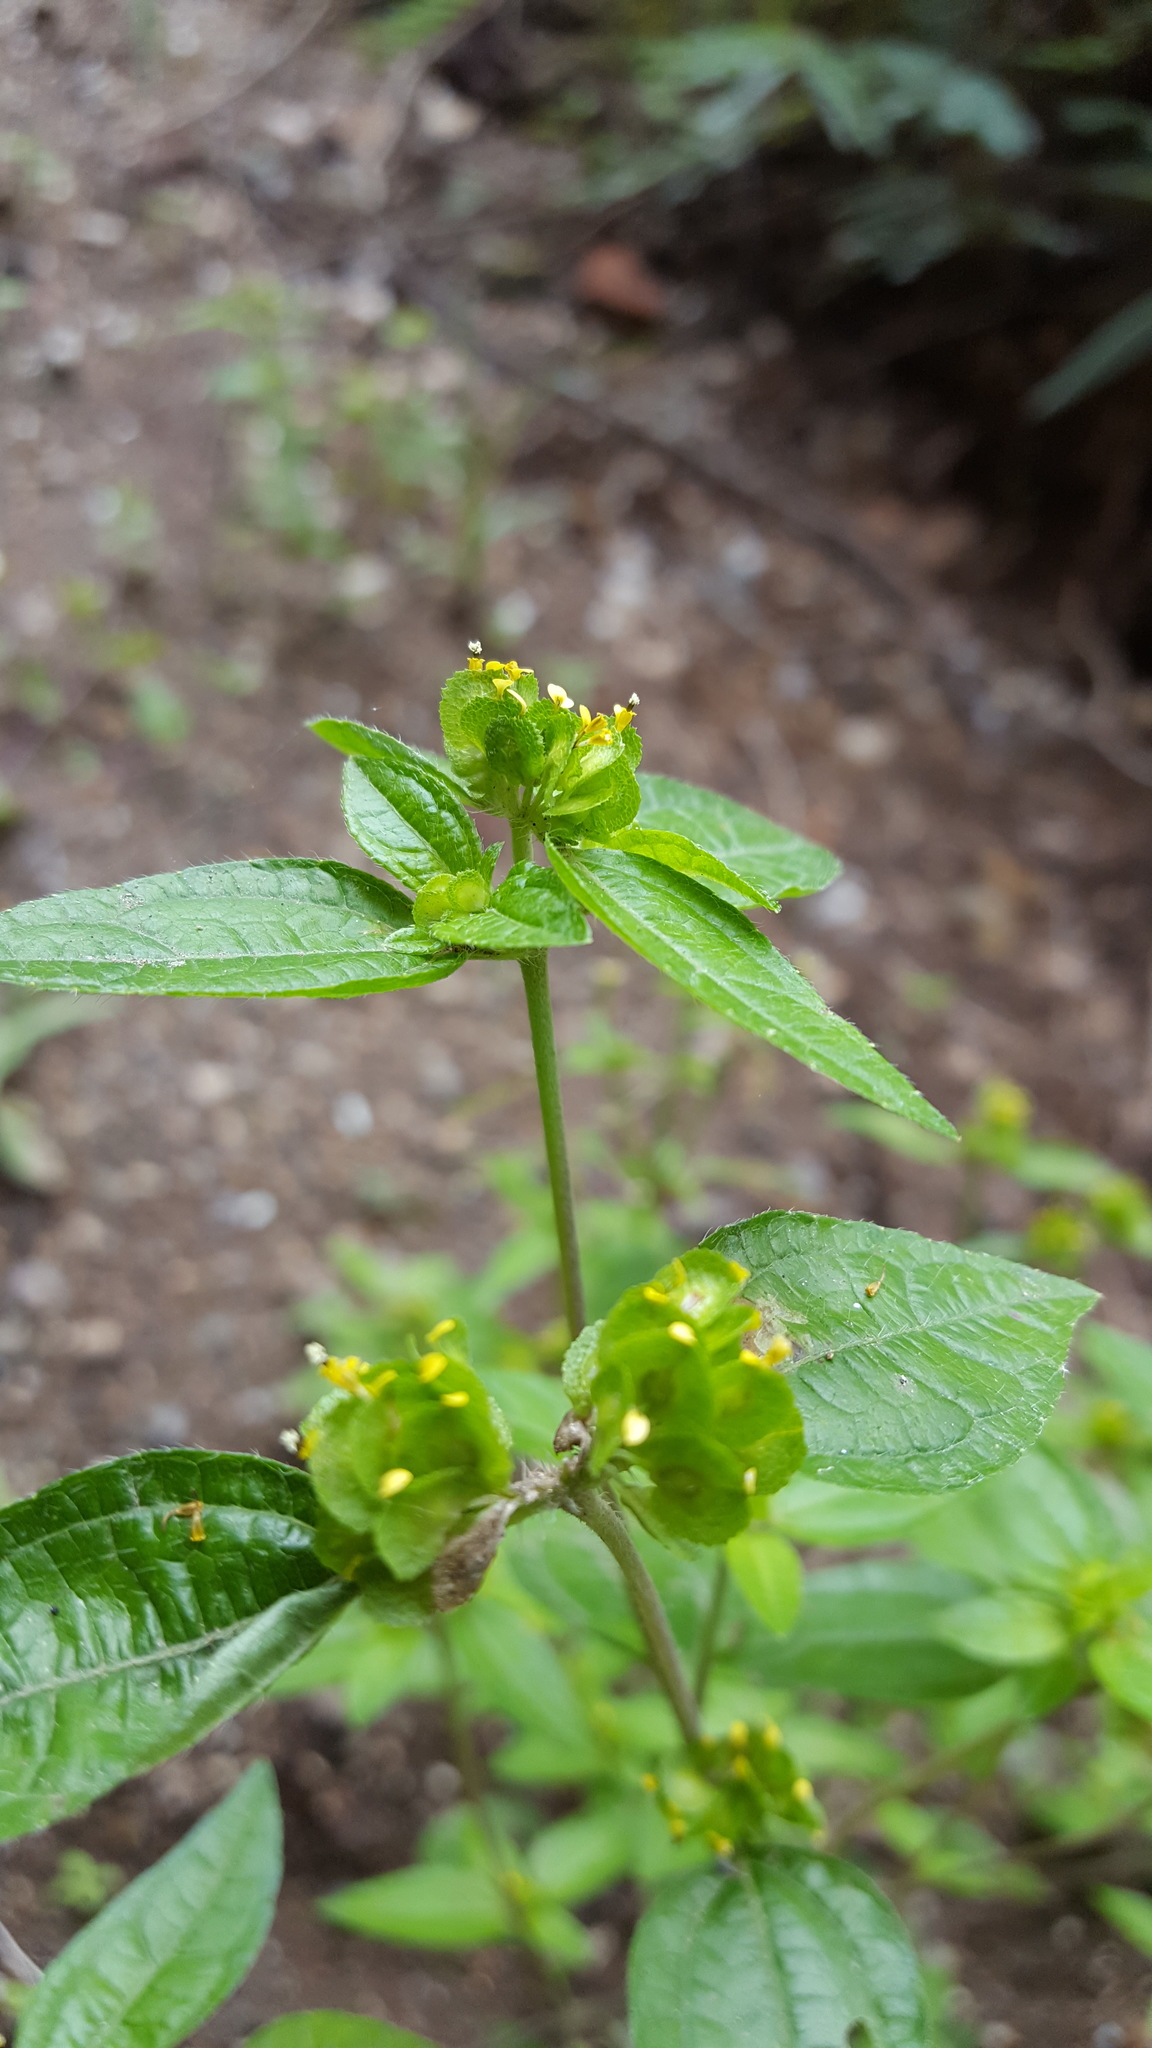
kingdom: Plantae
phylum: Tracheophyta
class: Magnoliopsida
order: Asterales
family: Asteraceae
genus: Delilia
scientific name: Delilia biflora
